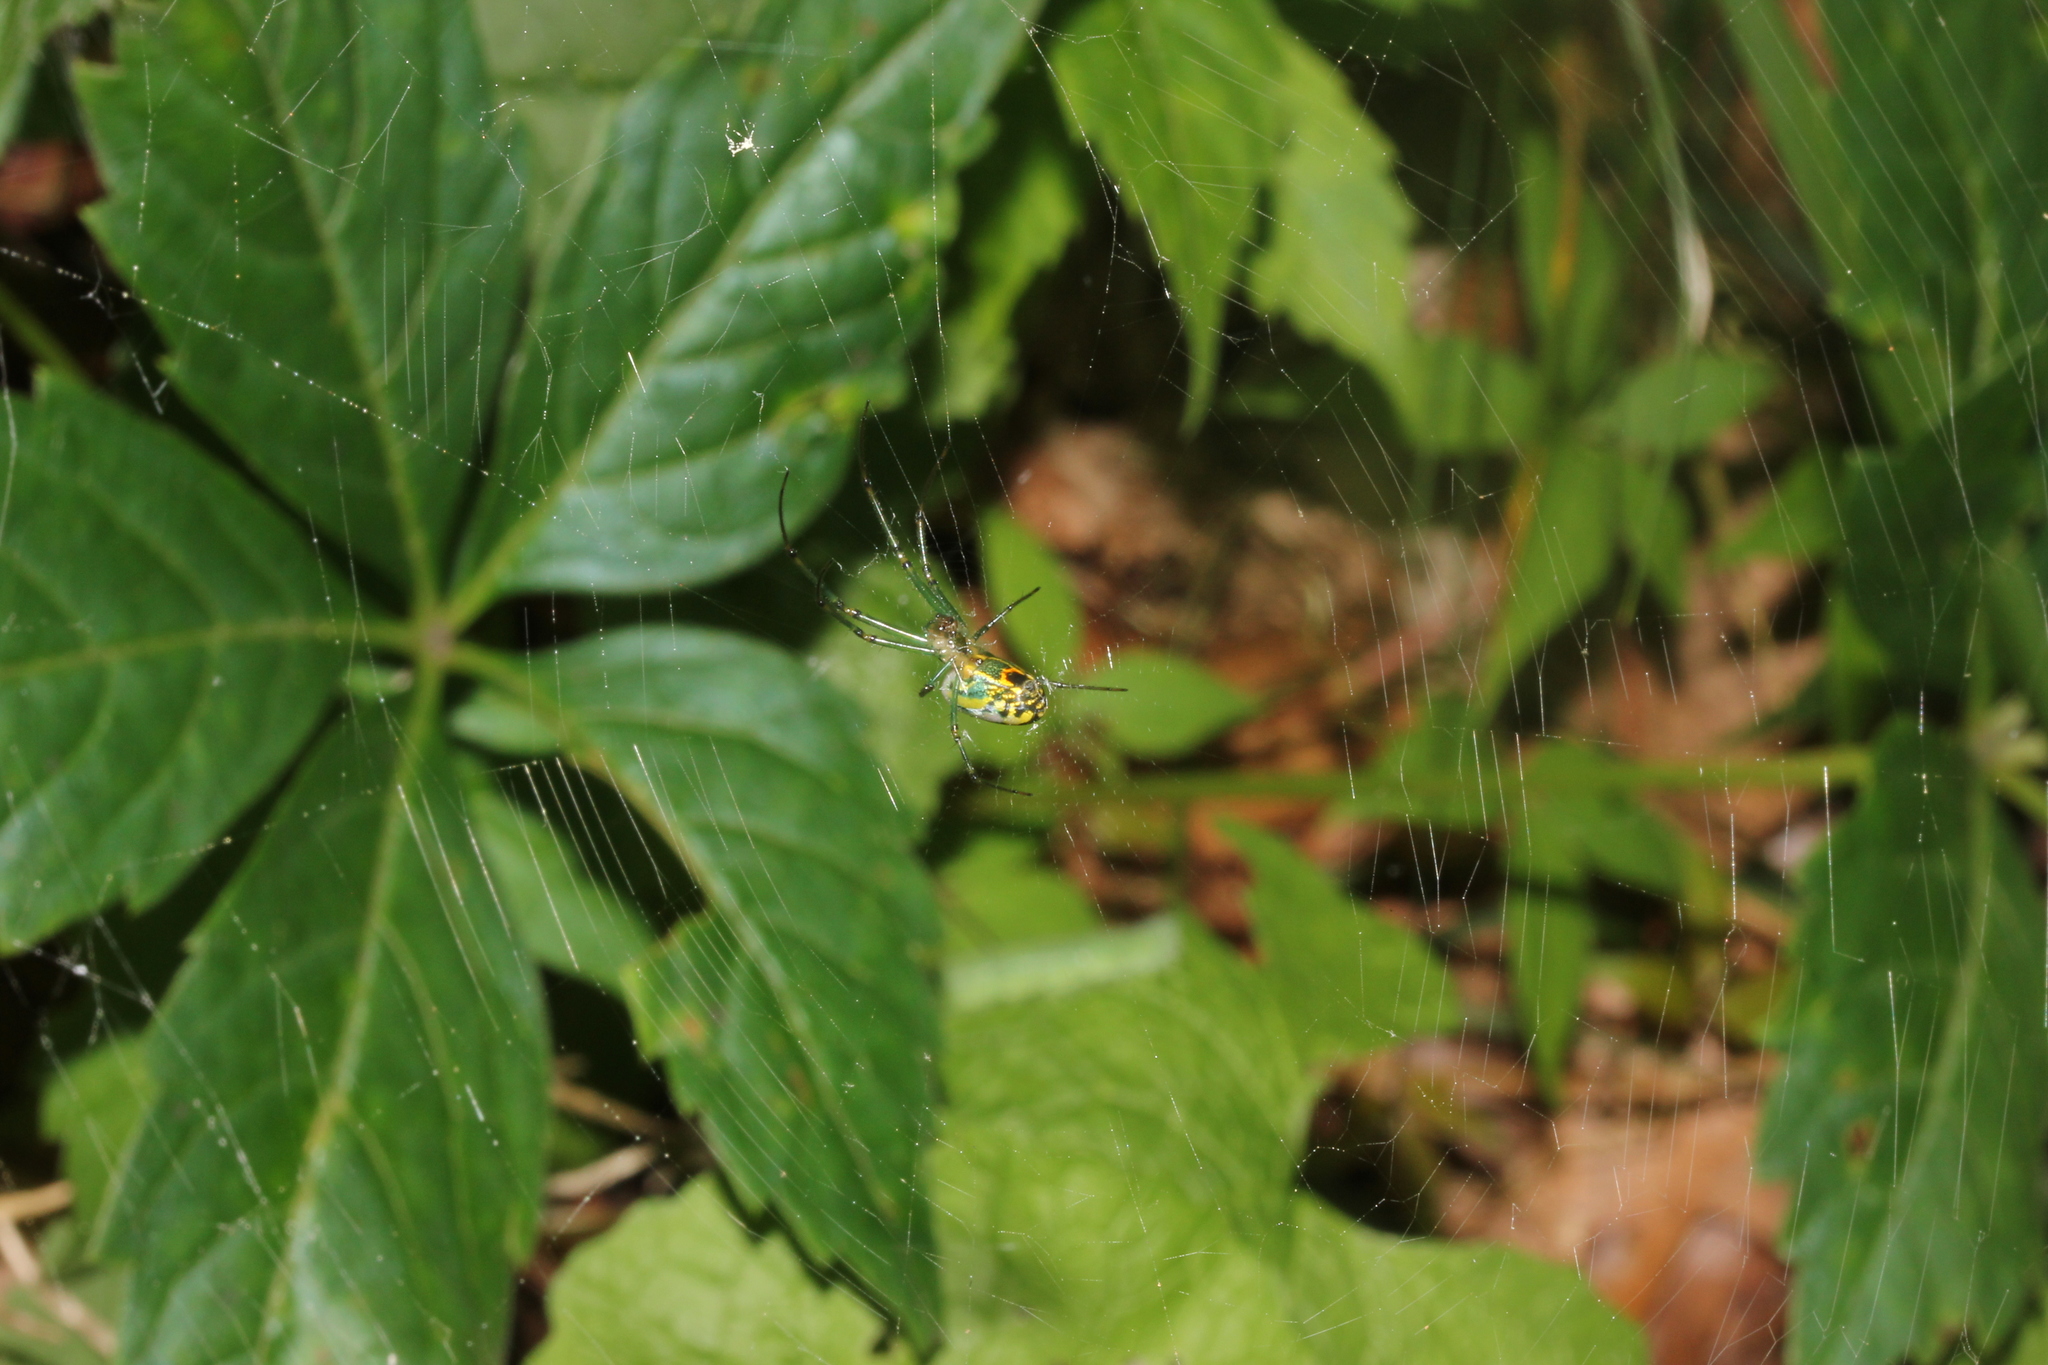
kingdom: Animalia
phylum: Arthropoda
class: Arachnida
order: Araneae
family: Tetragnathidae
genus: Leucauge
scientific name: Leucauge venusta
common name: Longjawed orb weavers
